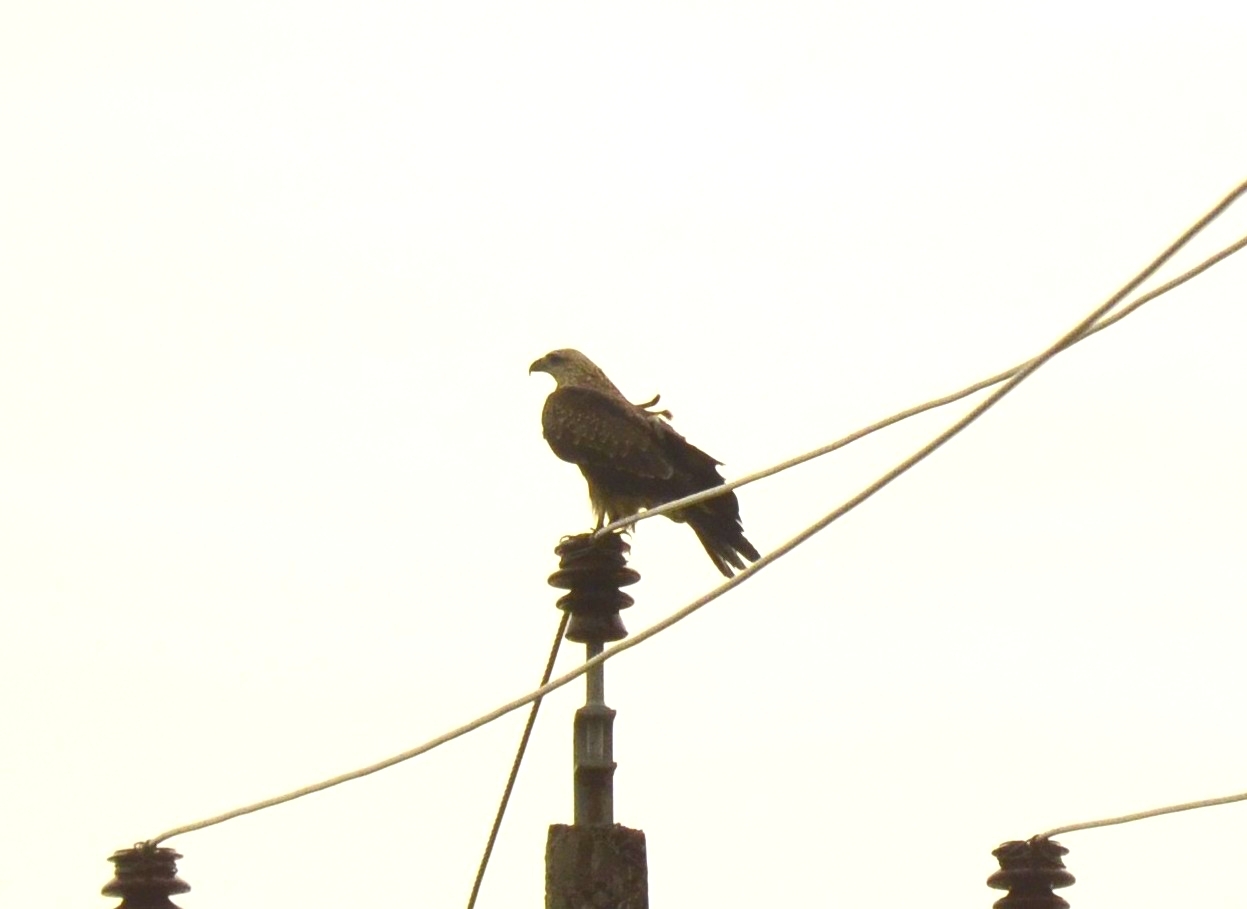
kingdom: Animalia
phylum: Chordata
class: Aves
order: Accipitriformes
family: Accipitridae
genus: Haliastur
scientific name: Haliastur indus
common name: Brahminy kite
